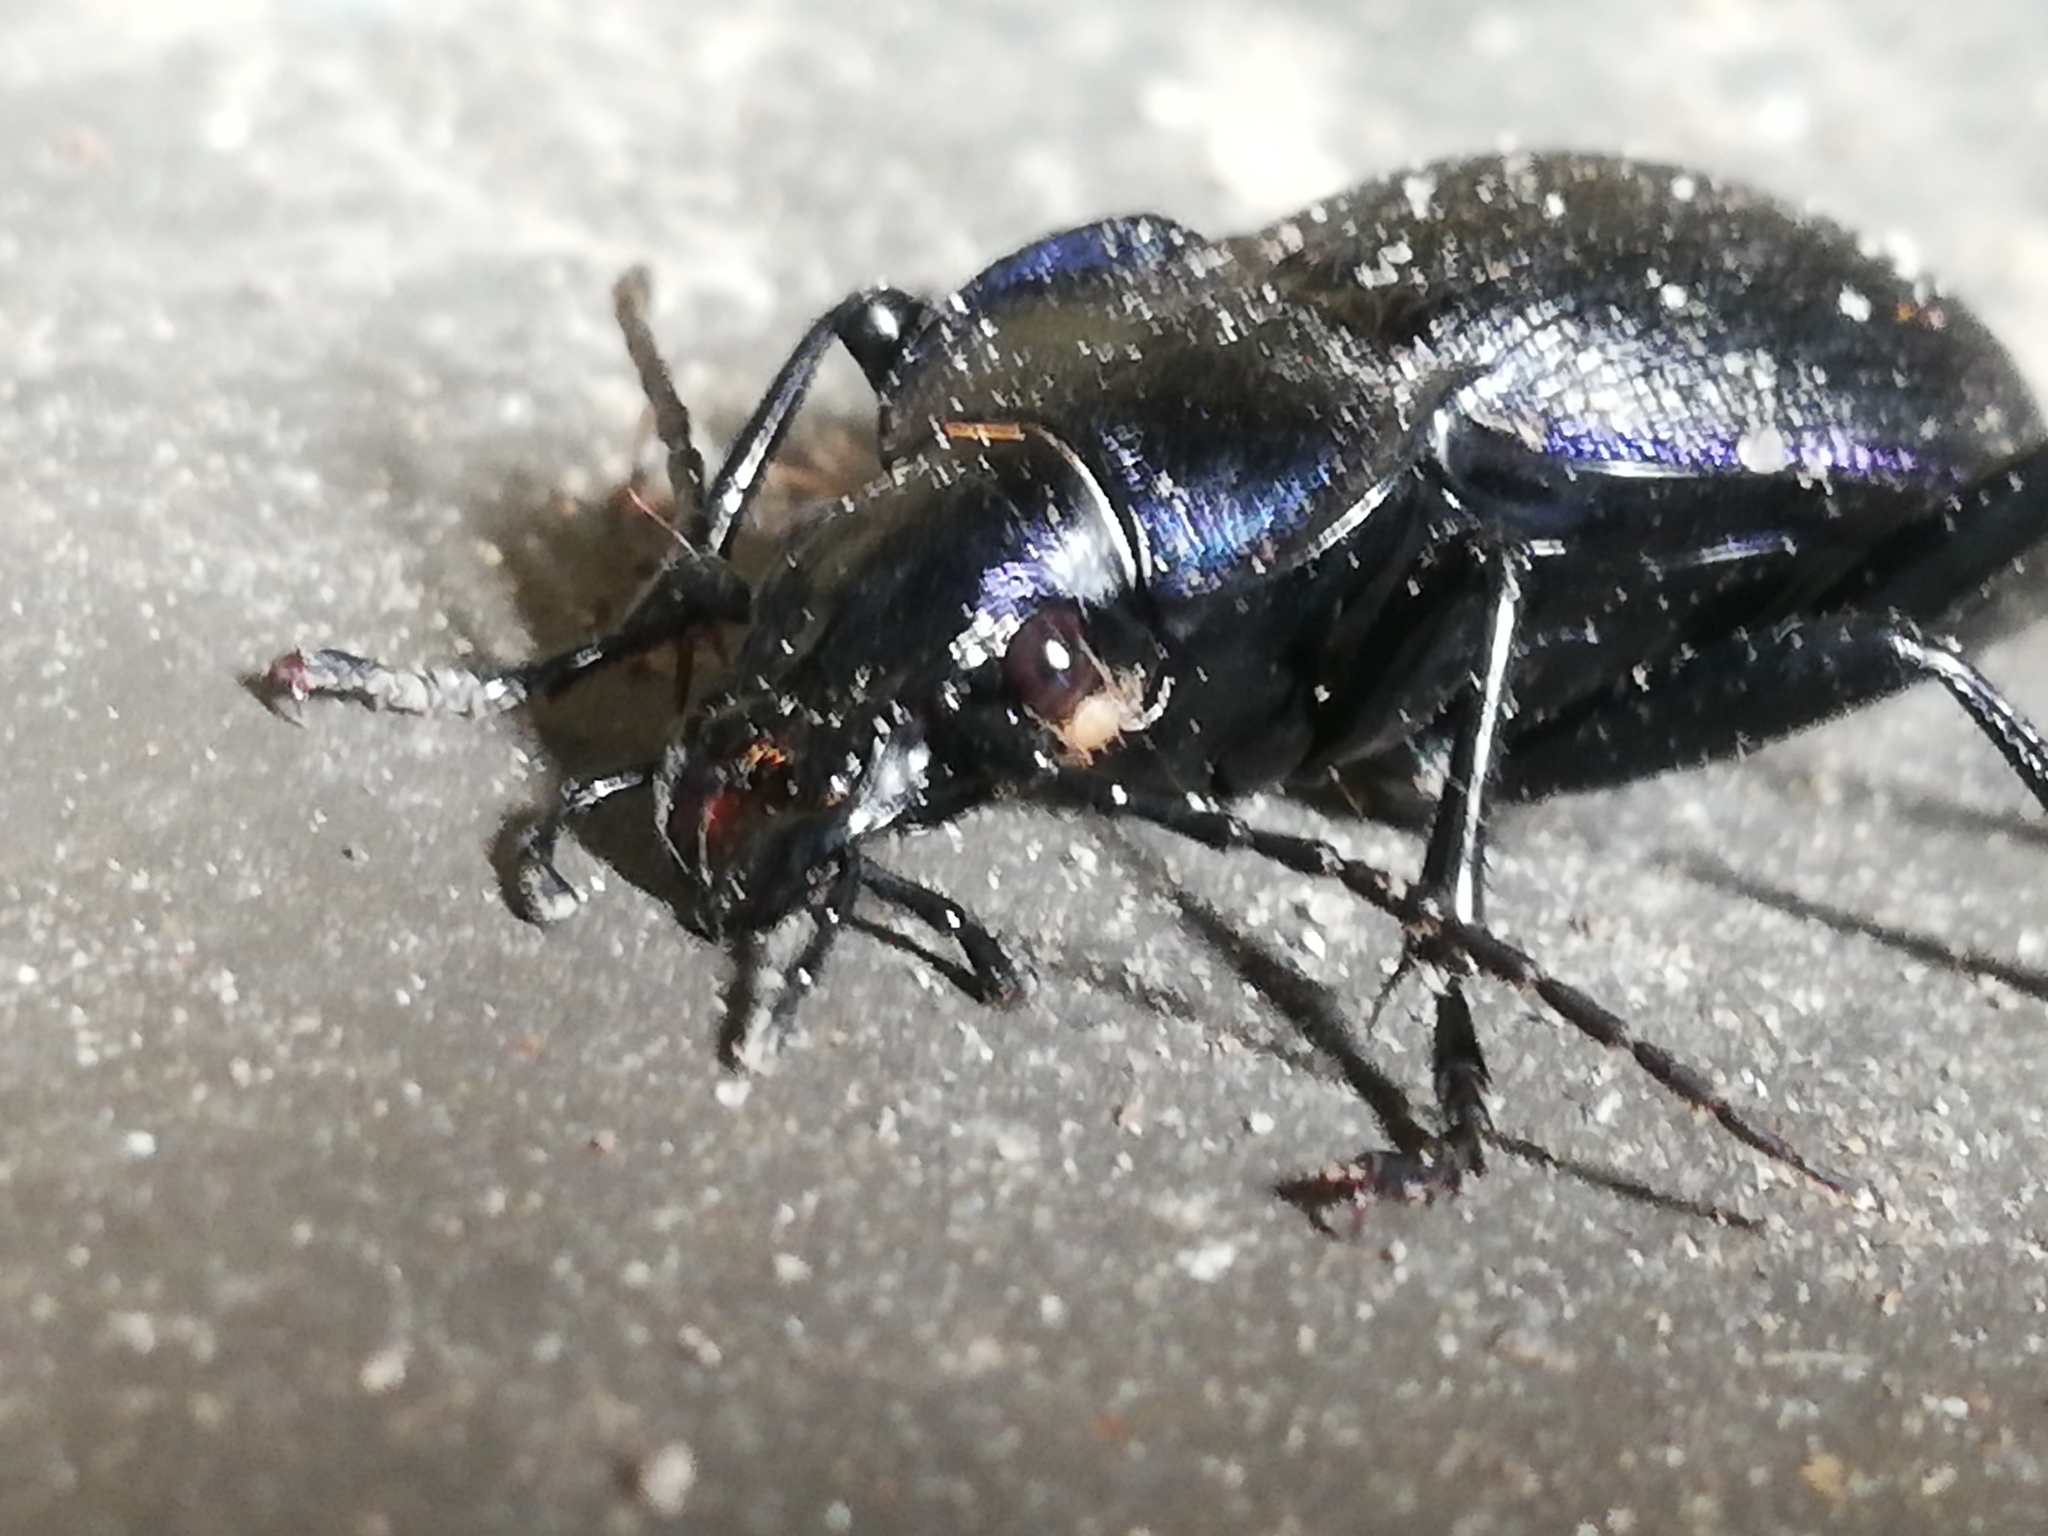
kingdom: Animalia
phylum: Arthropoda
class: Insecta
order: Coleoptera
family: Carabidae
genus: Carabus
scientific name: Carabus problematicus
